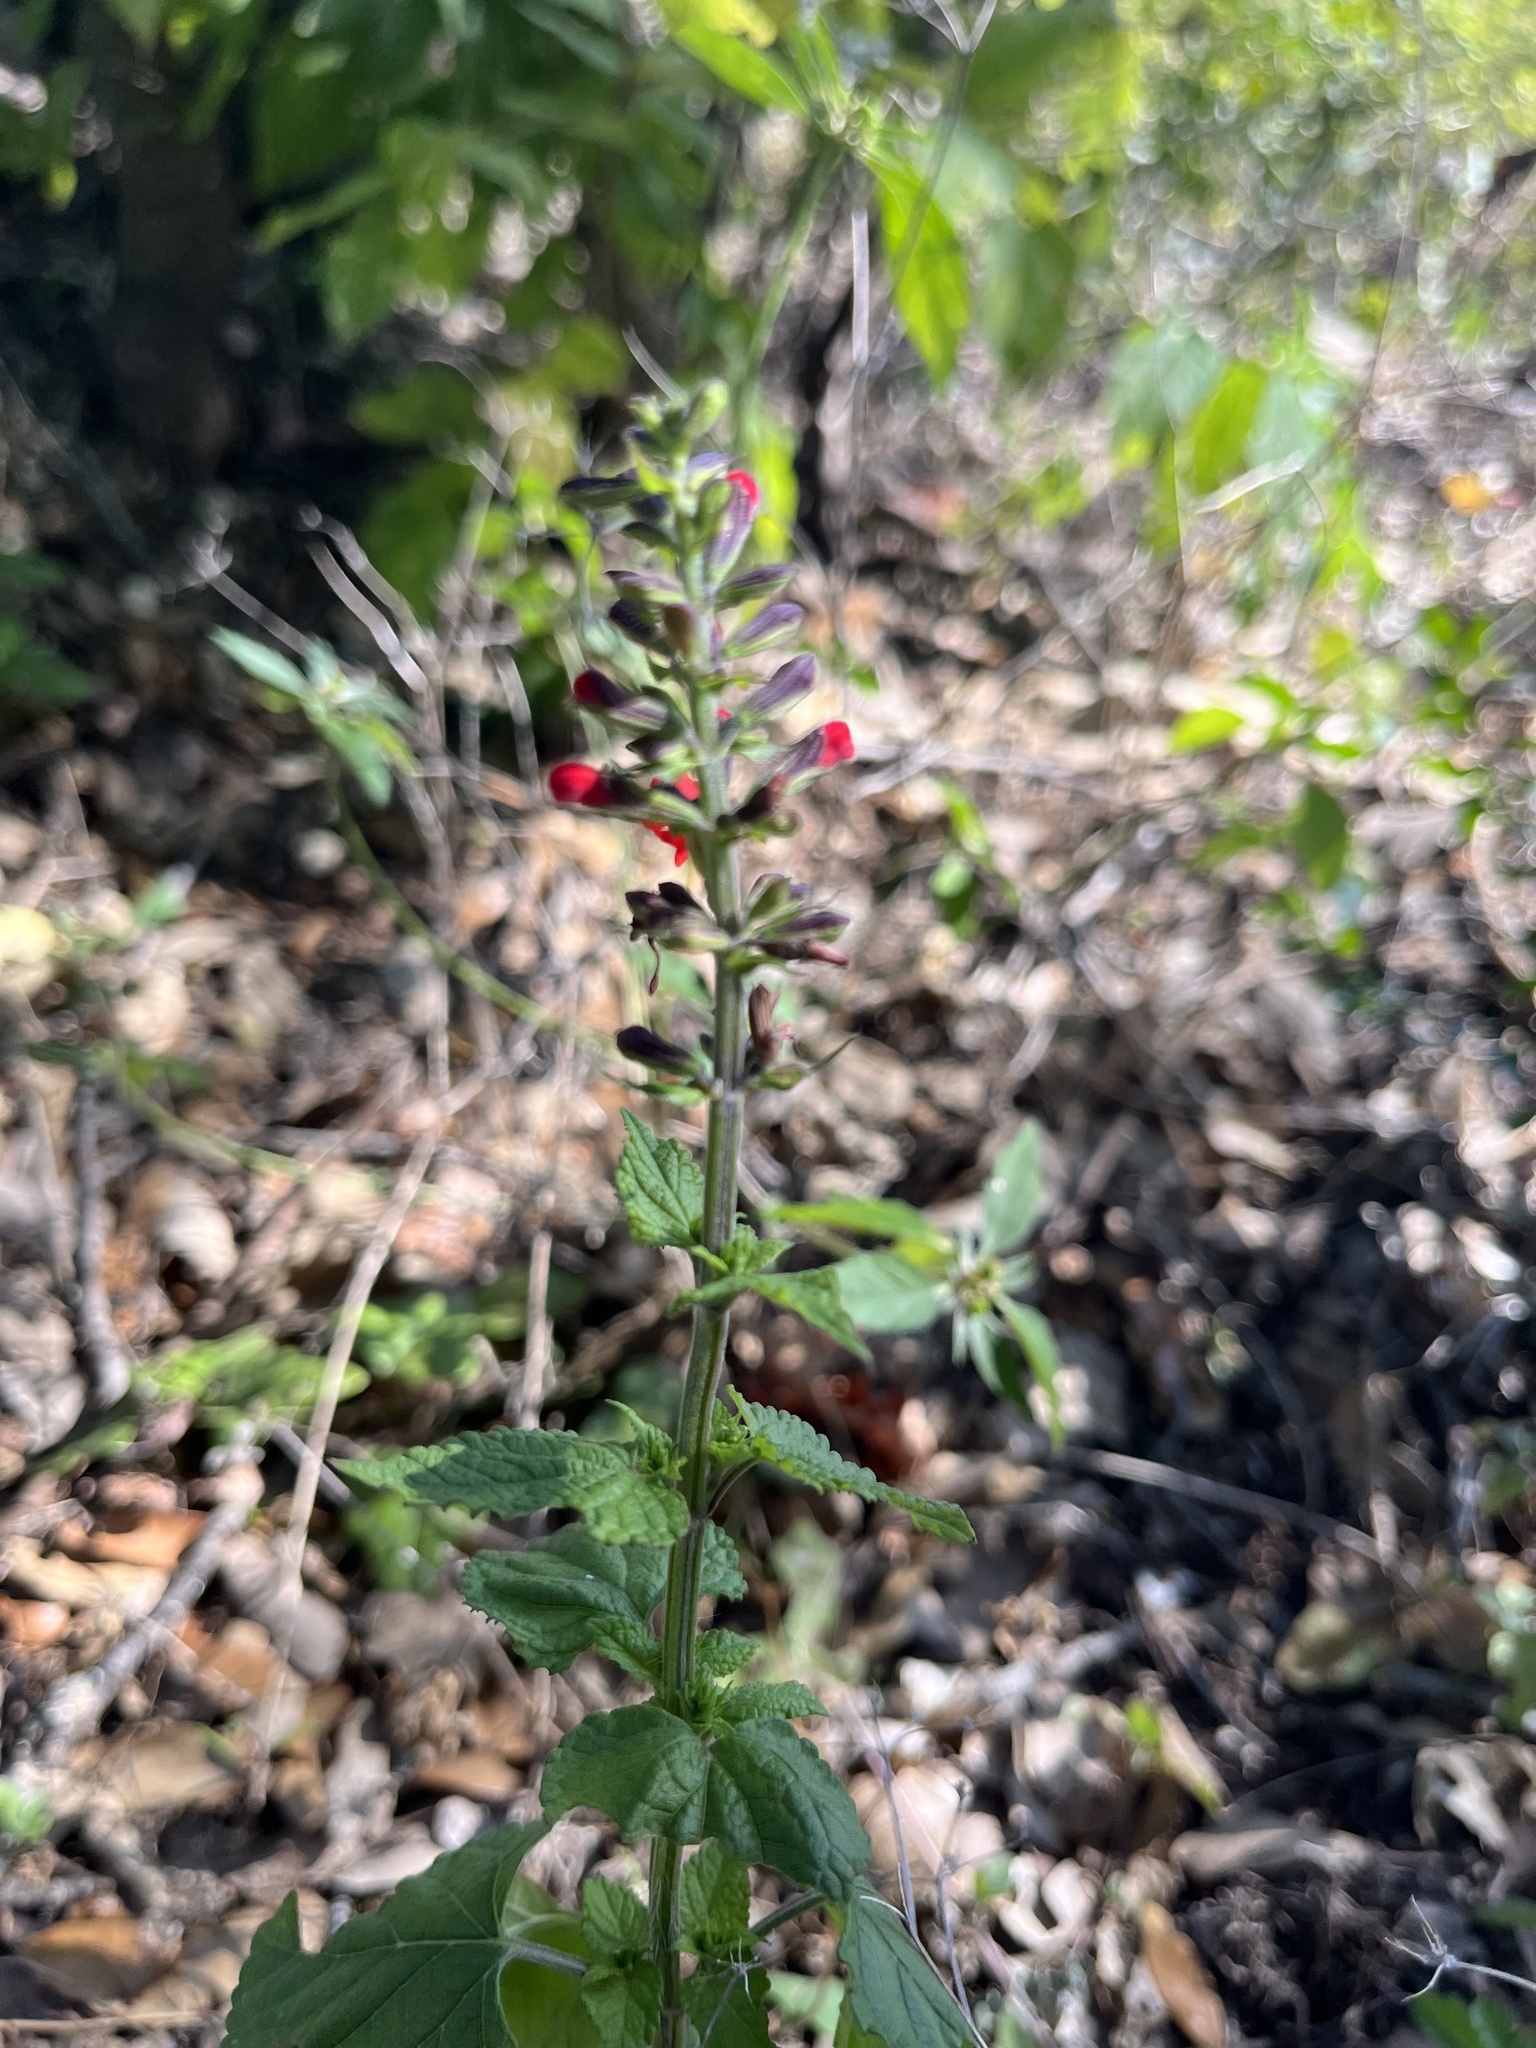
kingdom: Plantae
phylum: Tracheophyta
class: Magnoliopsida
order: Lamiales
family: Lamiaceae
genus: Salvia
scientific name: Salvia coccinea
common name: Blood sage
